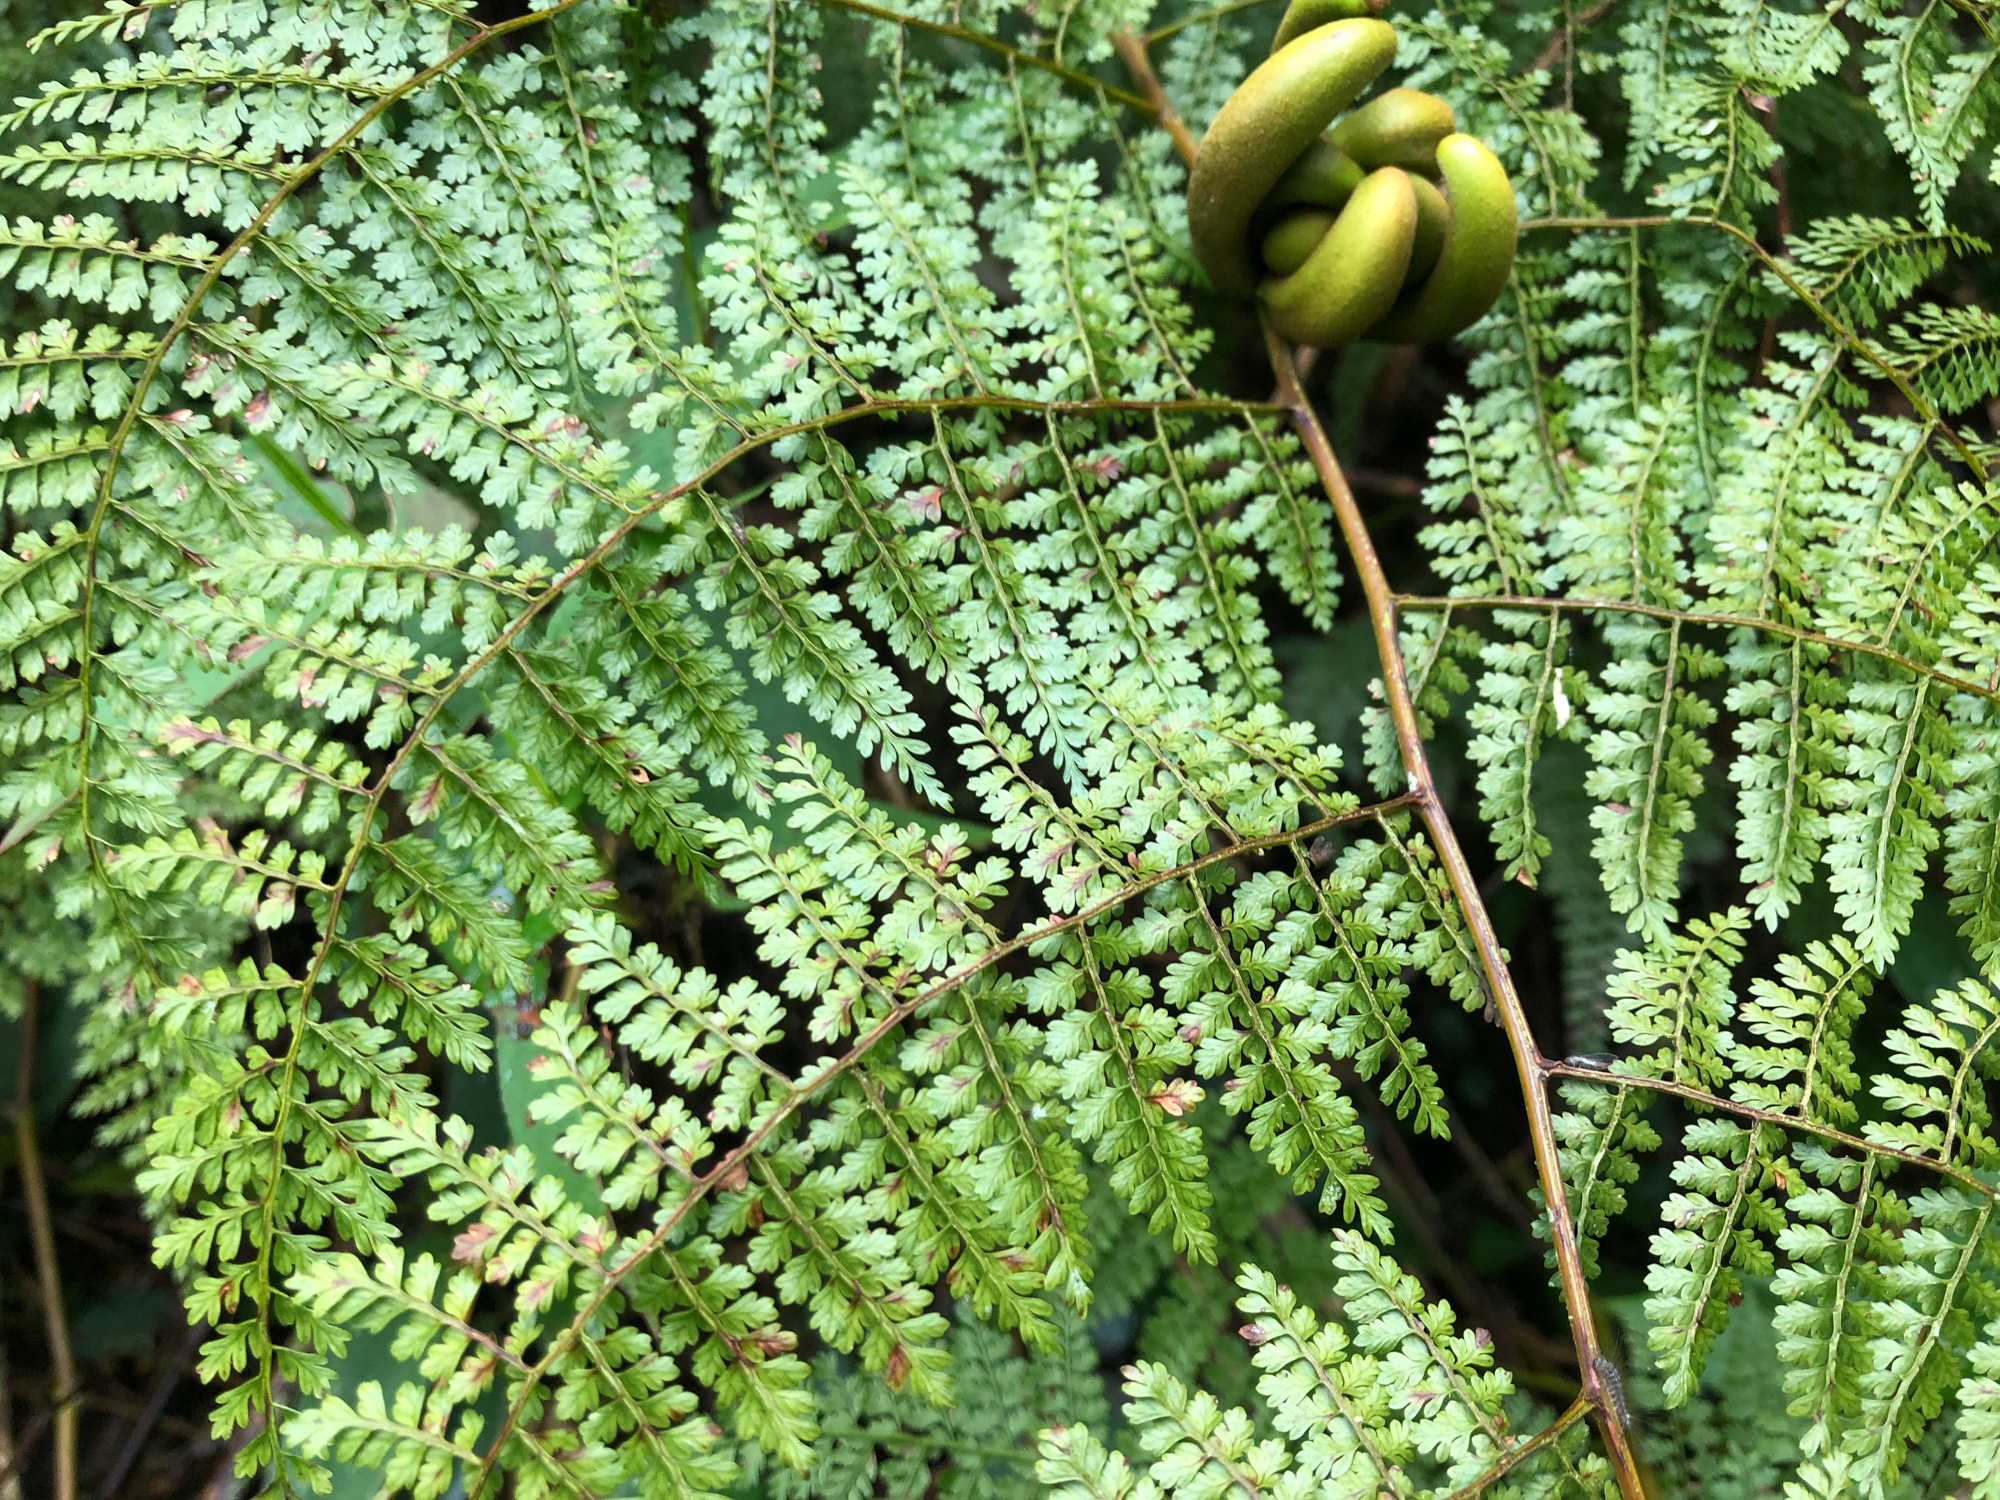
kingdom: Plantae
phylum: Tracheophyta
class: Polypodiopsida
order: Polypodiales
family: Dennstaedtiaceae
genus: Monachosorum
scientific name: Monachosorum henryi
